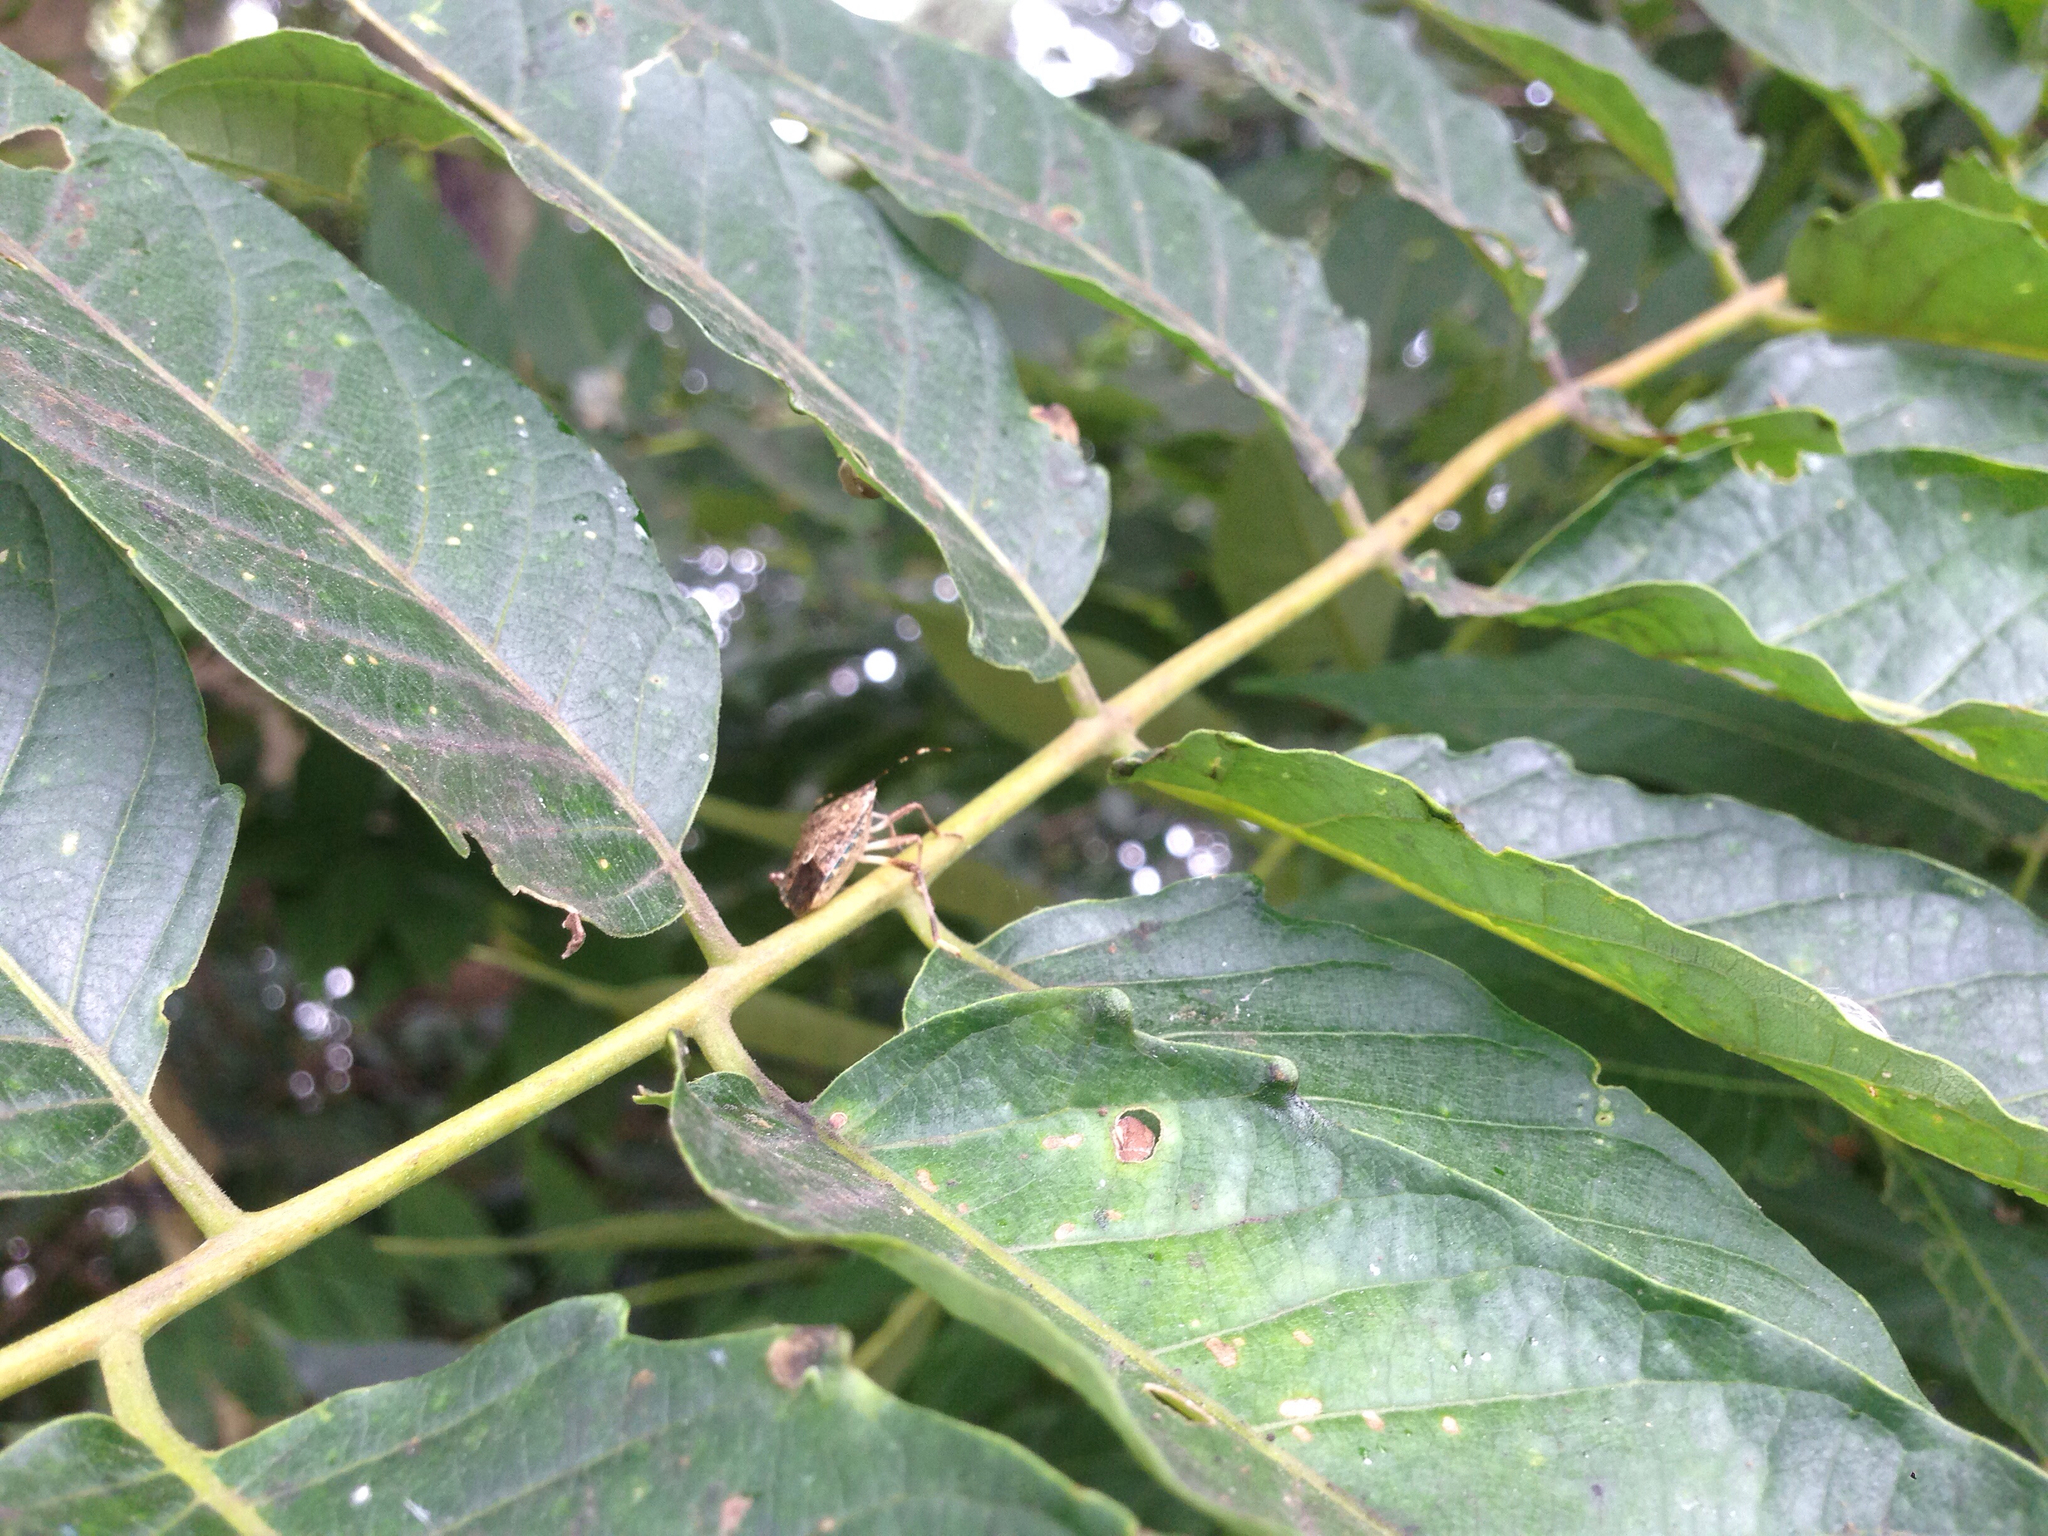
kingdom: Animalia
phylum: Arthropoda
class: Insecta
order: Hemiptera
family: Pentatomidae
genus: Halyomorpha
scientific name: Halyomorpha halys
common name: Brown marmorated stink bug
